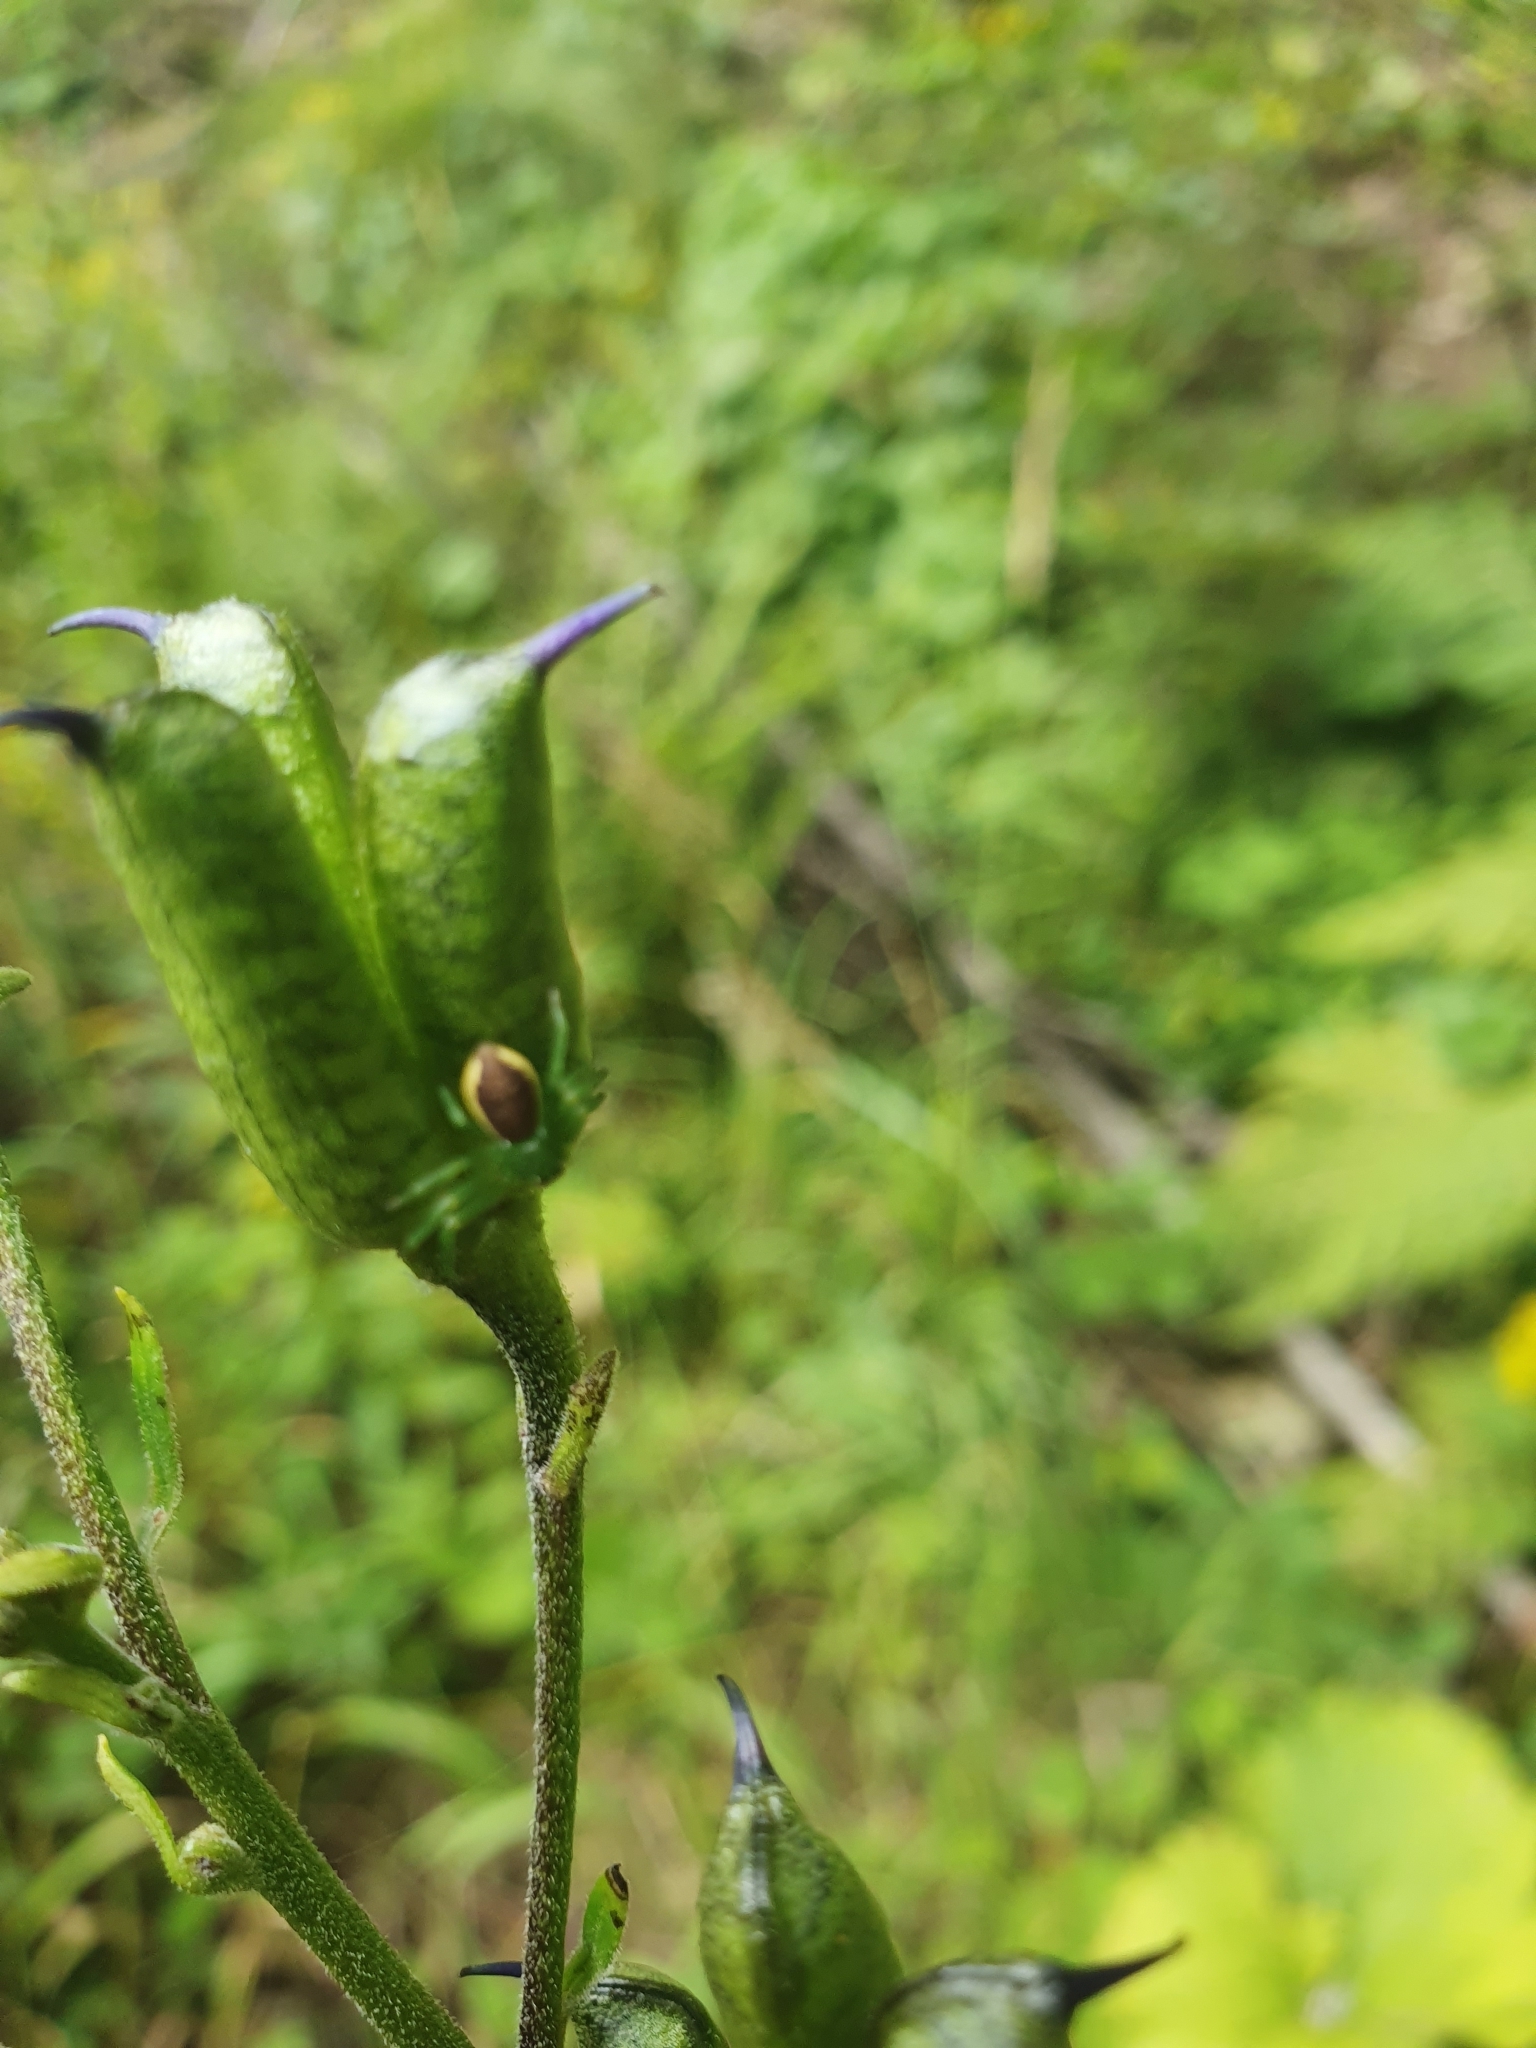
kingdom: Animalia
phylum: Arthropoda
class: Arachnida
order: Araneae
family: Thomisidae
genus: Diaea
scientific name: Diaea dorsata
